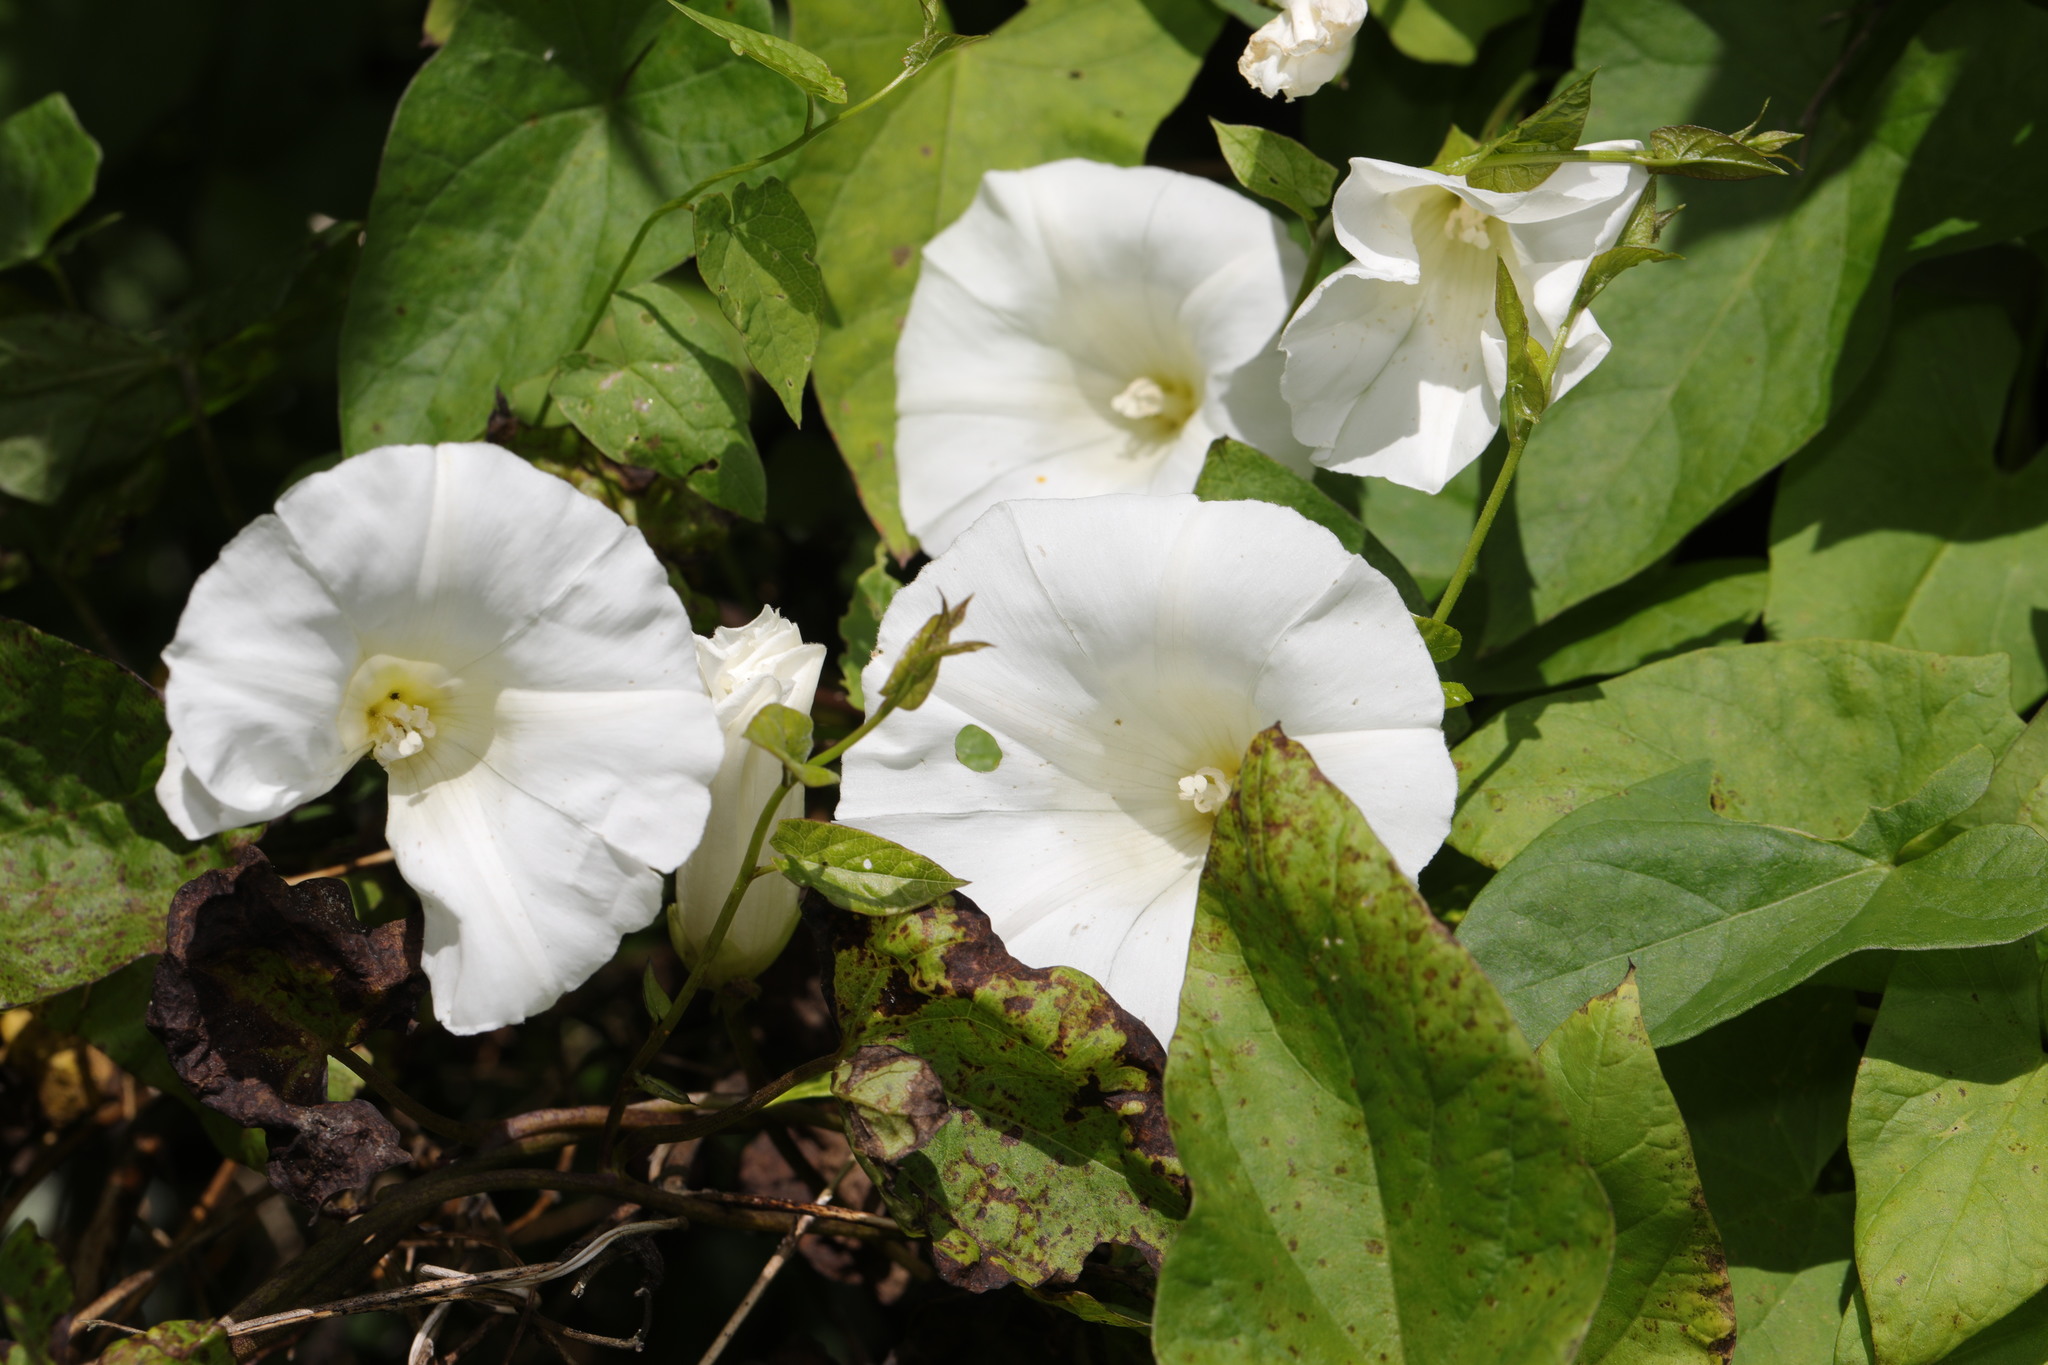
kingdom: Plantae
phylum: Tracheophyta
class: Magnoliopsida
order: Solanales
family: Convolvulaceae
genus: Calystegia
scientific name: Calystegia silvatica
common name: Large bindweed
